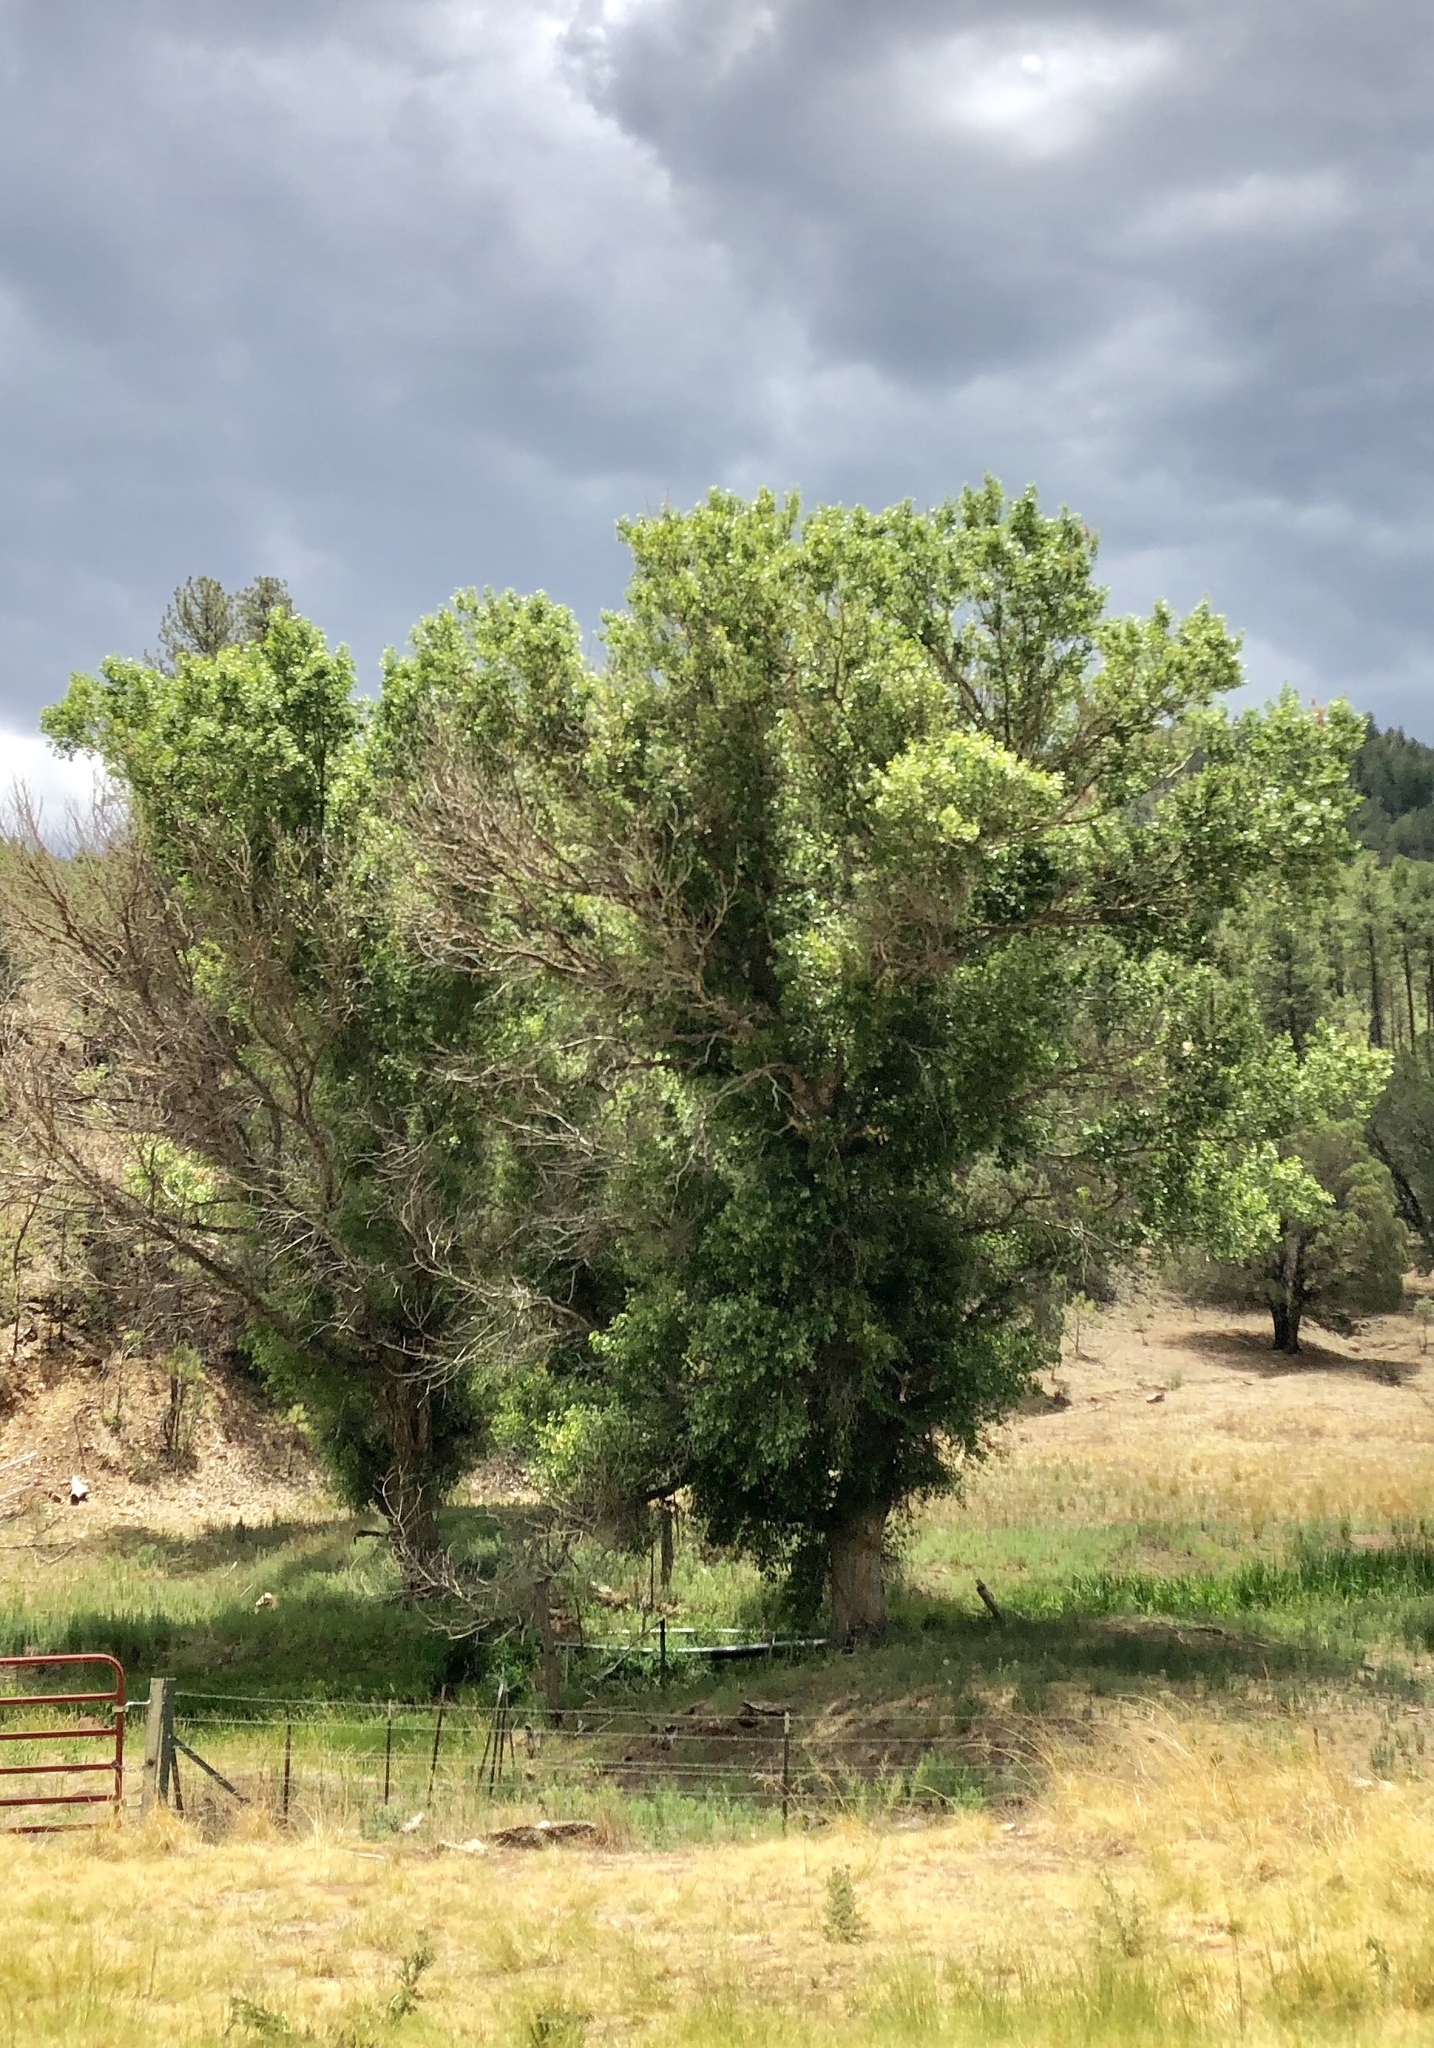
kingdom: Plantae
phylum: Tracheophyta
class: Magnoliopsida
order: Malpighiales
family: Salicaceae
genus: Populus
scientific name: Populus fremontii
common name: Fremont's cottonwood
